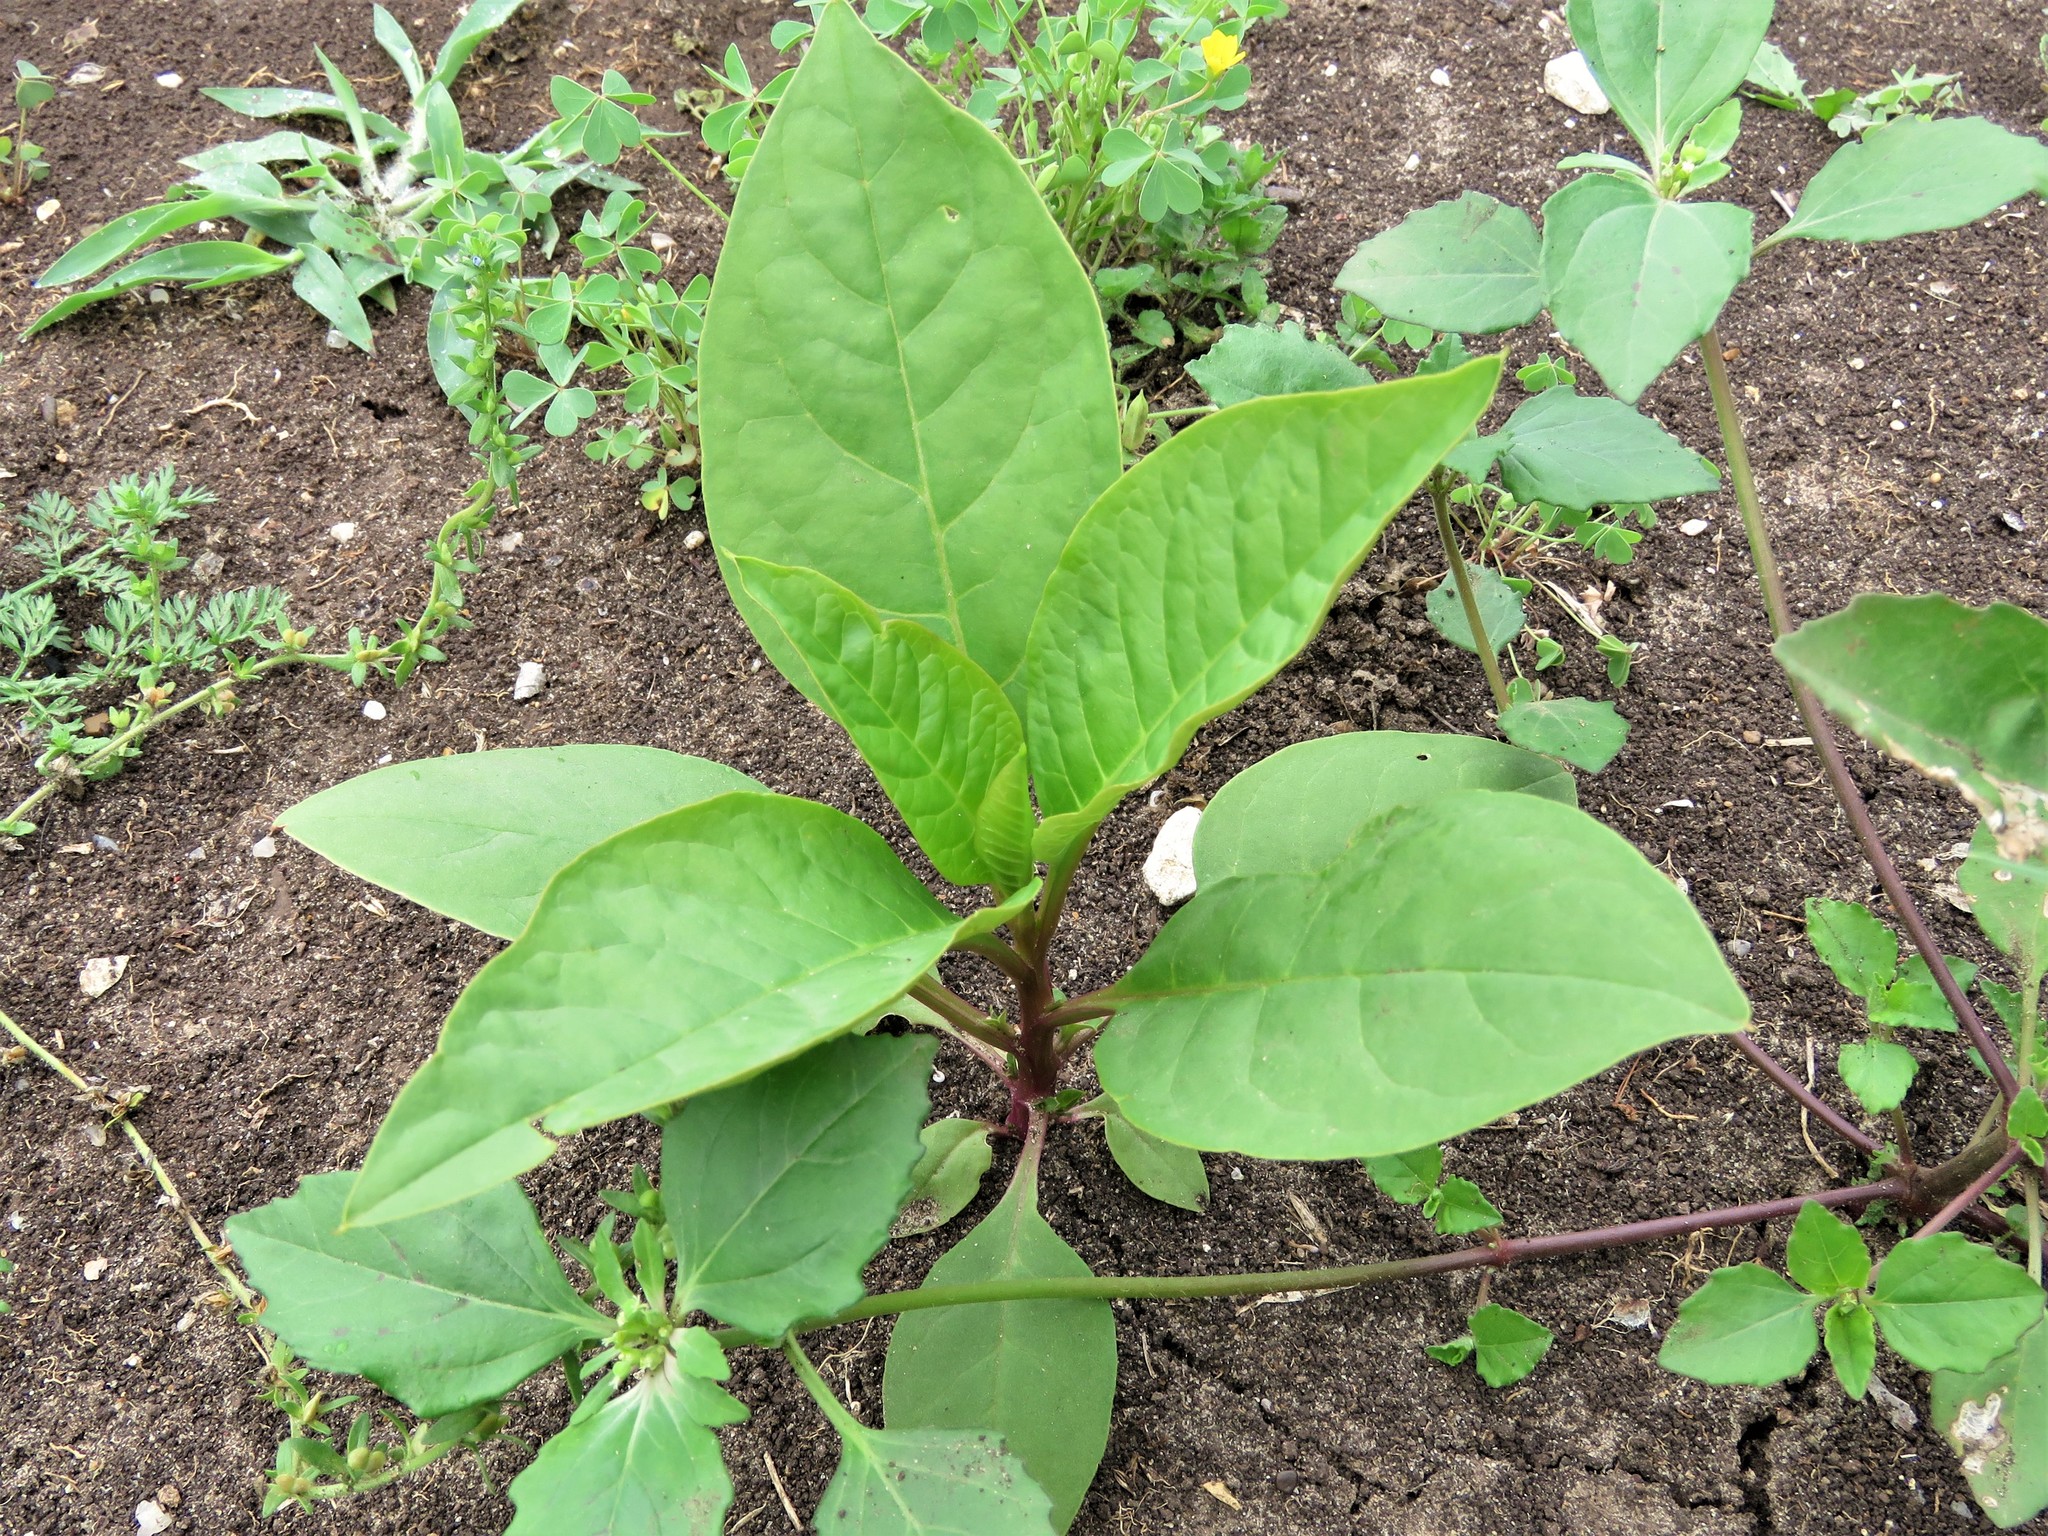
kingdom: Plantae
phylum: Tracheophyta
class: Magnoliopsida
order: Caryophyllales
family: Phytolaccaceae
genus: Phytolacca
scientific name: Phytolacca americana
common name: American pokeweed
